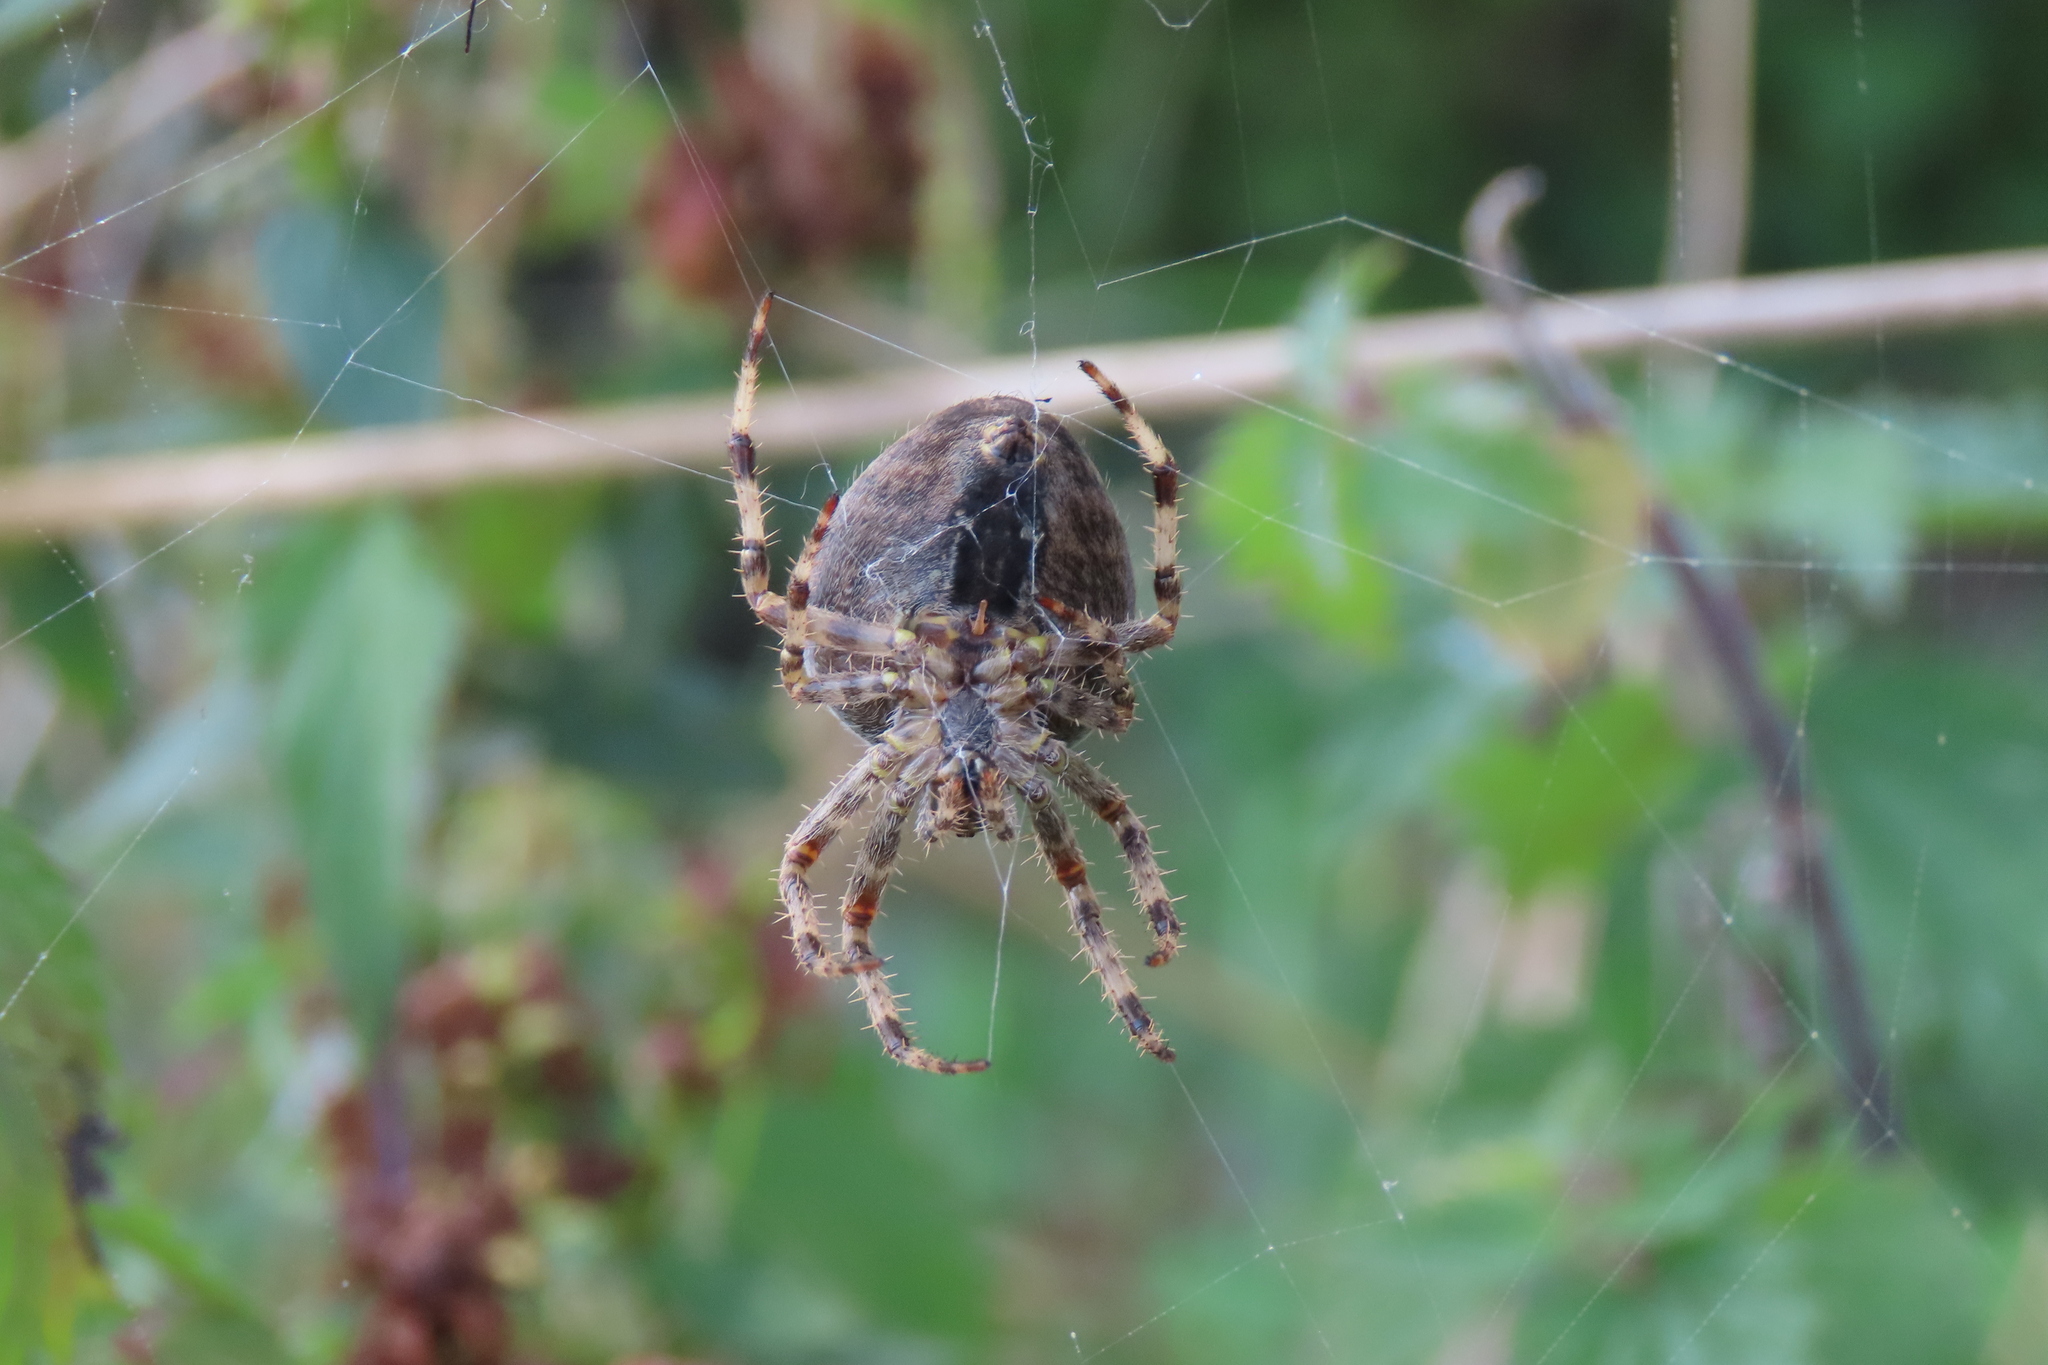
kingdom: Animalia
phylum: Arthropoda
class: Arachnida
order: Araneae
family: Araneidae
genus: Araneus
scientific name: Araneus diadematus
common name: Cross orbweaver
